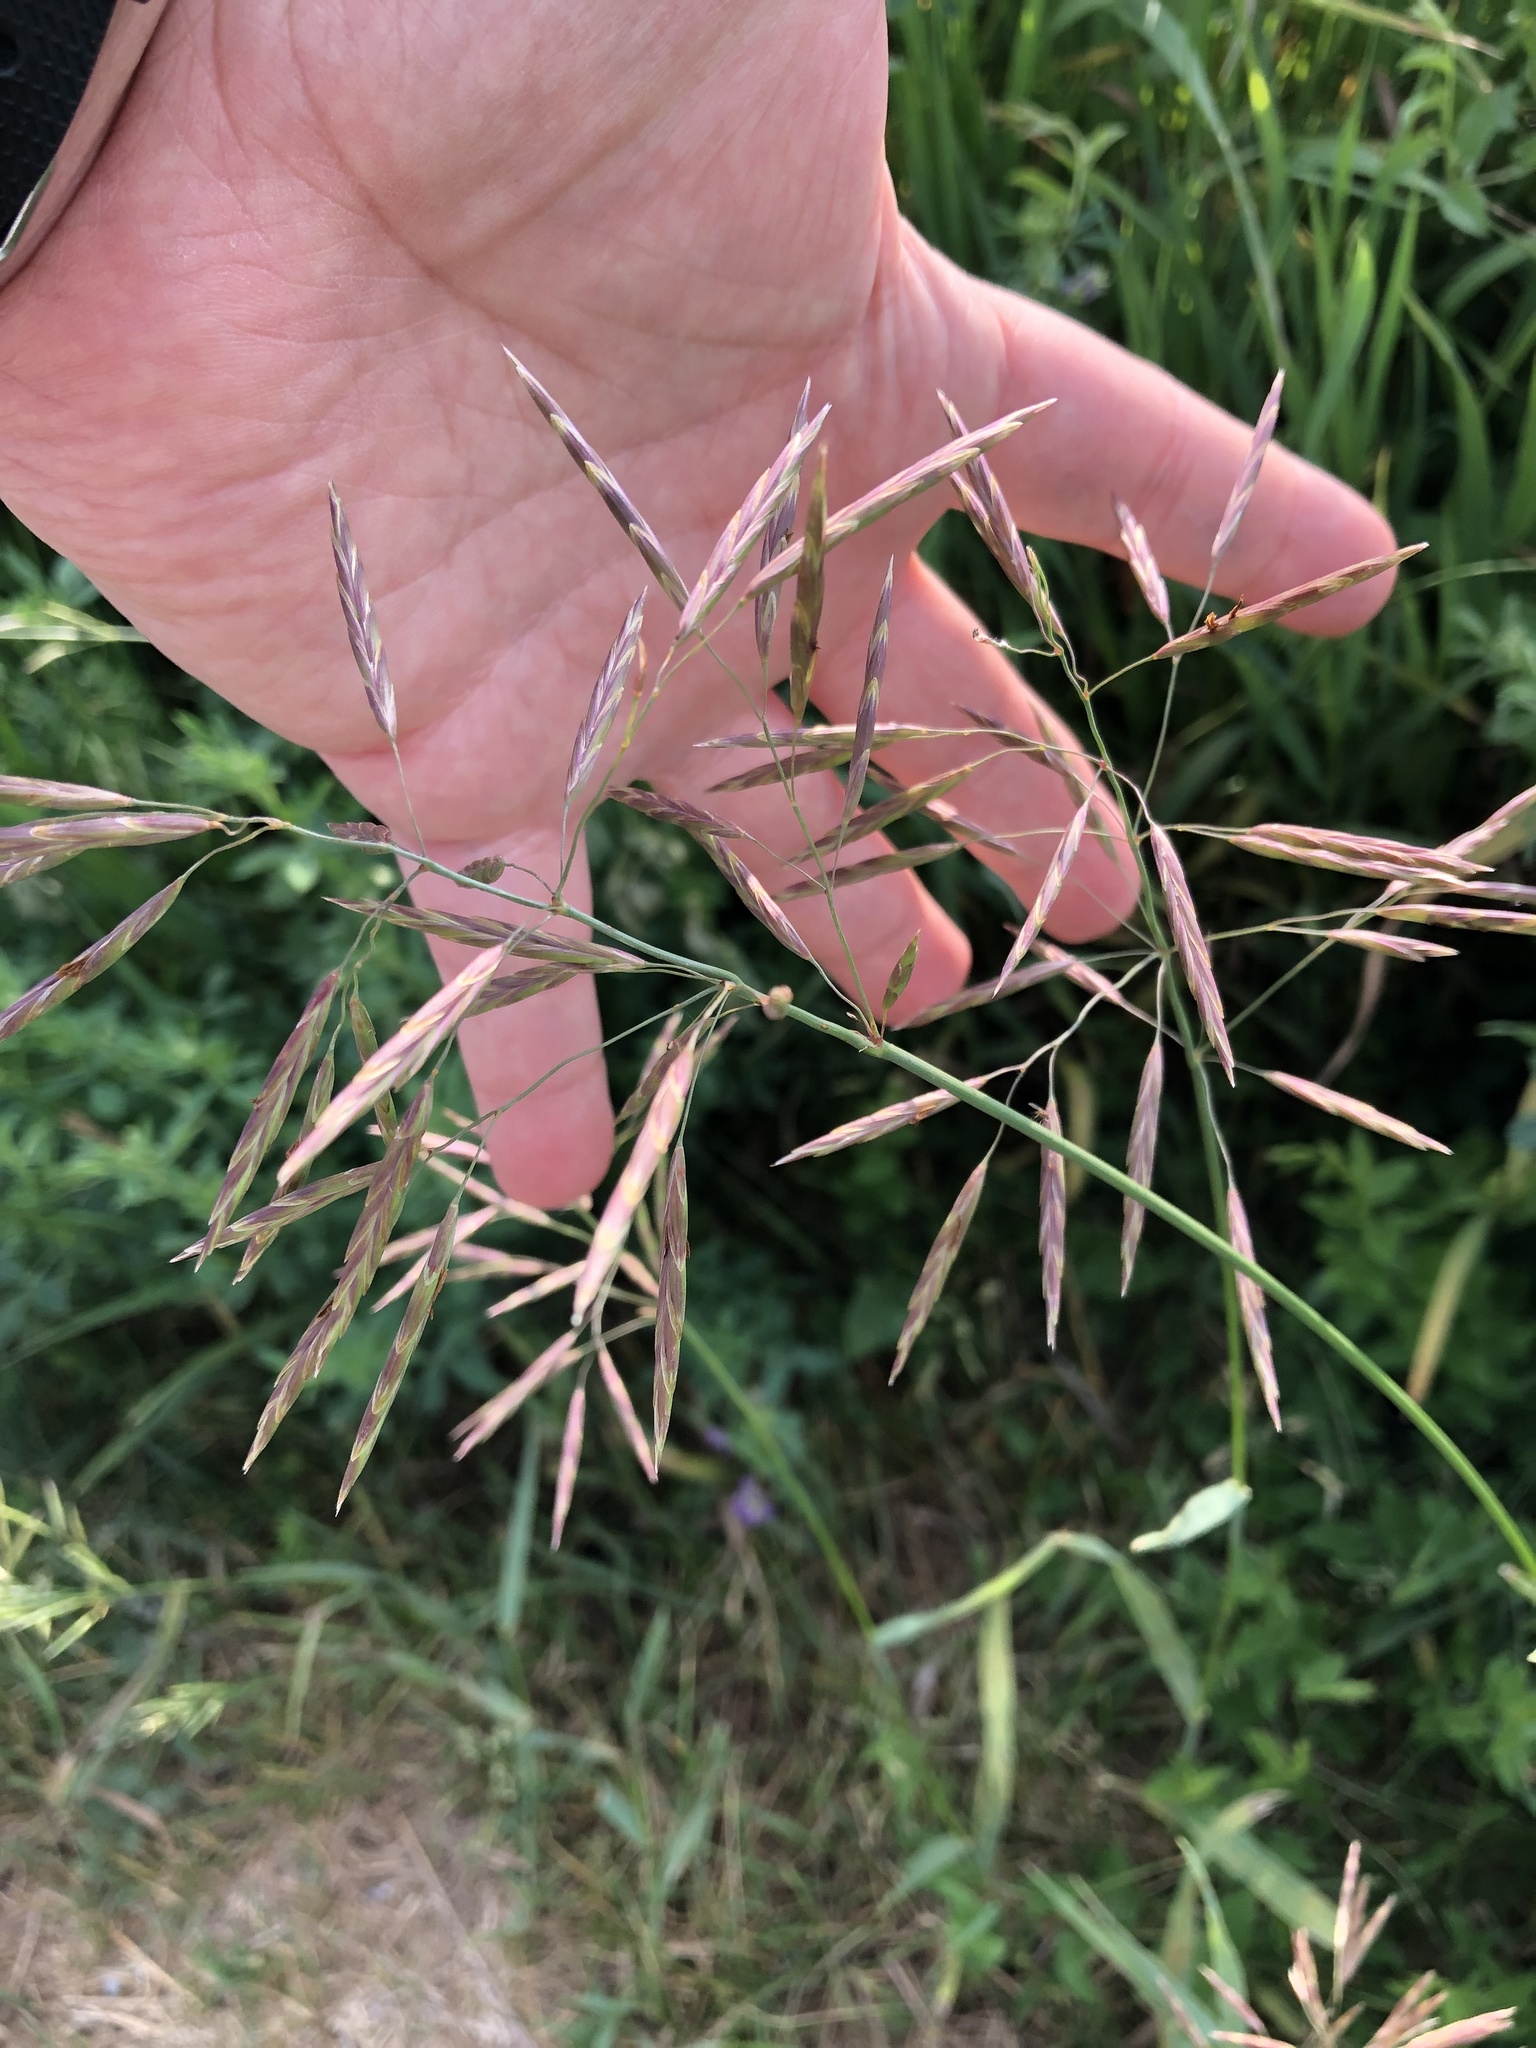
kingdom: Plantae
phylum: Tracheophyta
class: Liliopsida
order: Poales
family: Poaceae
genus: Bromus
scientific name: Bromus inermis
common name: Smooth brome
